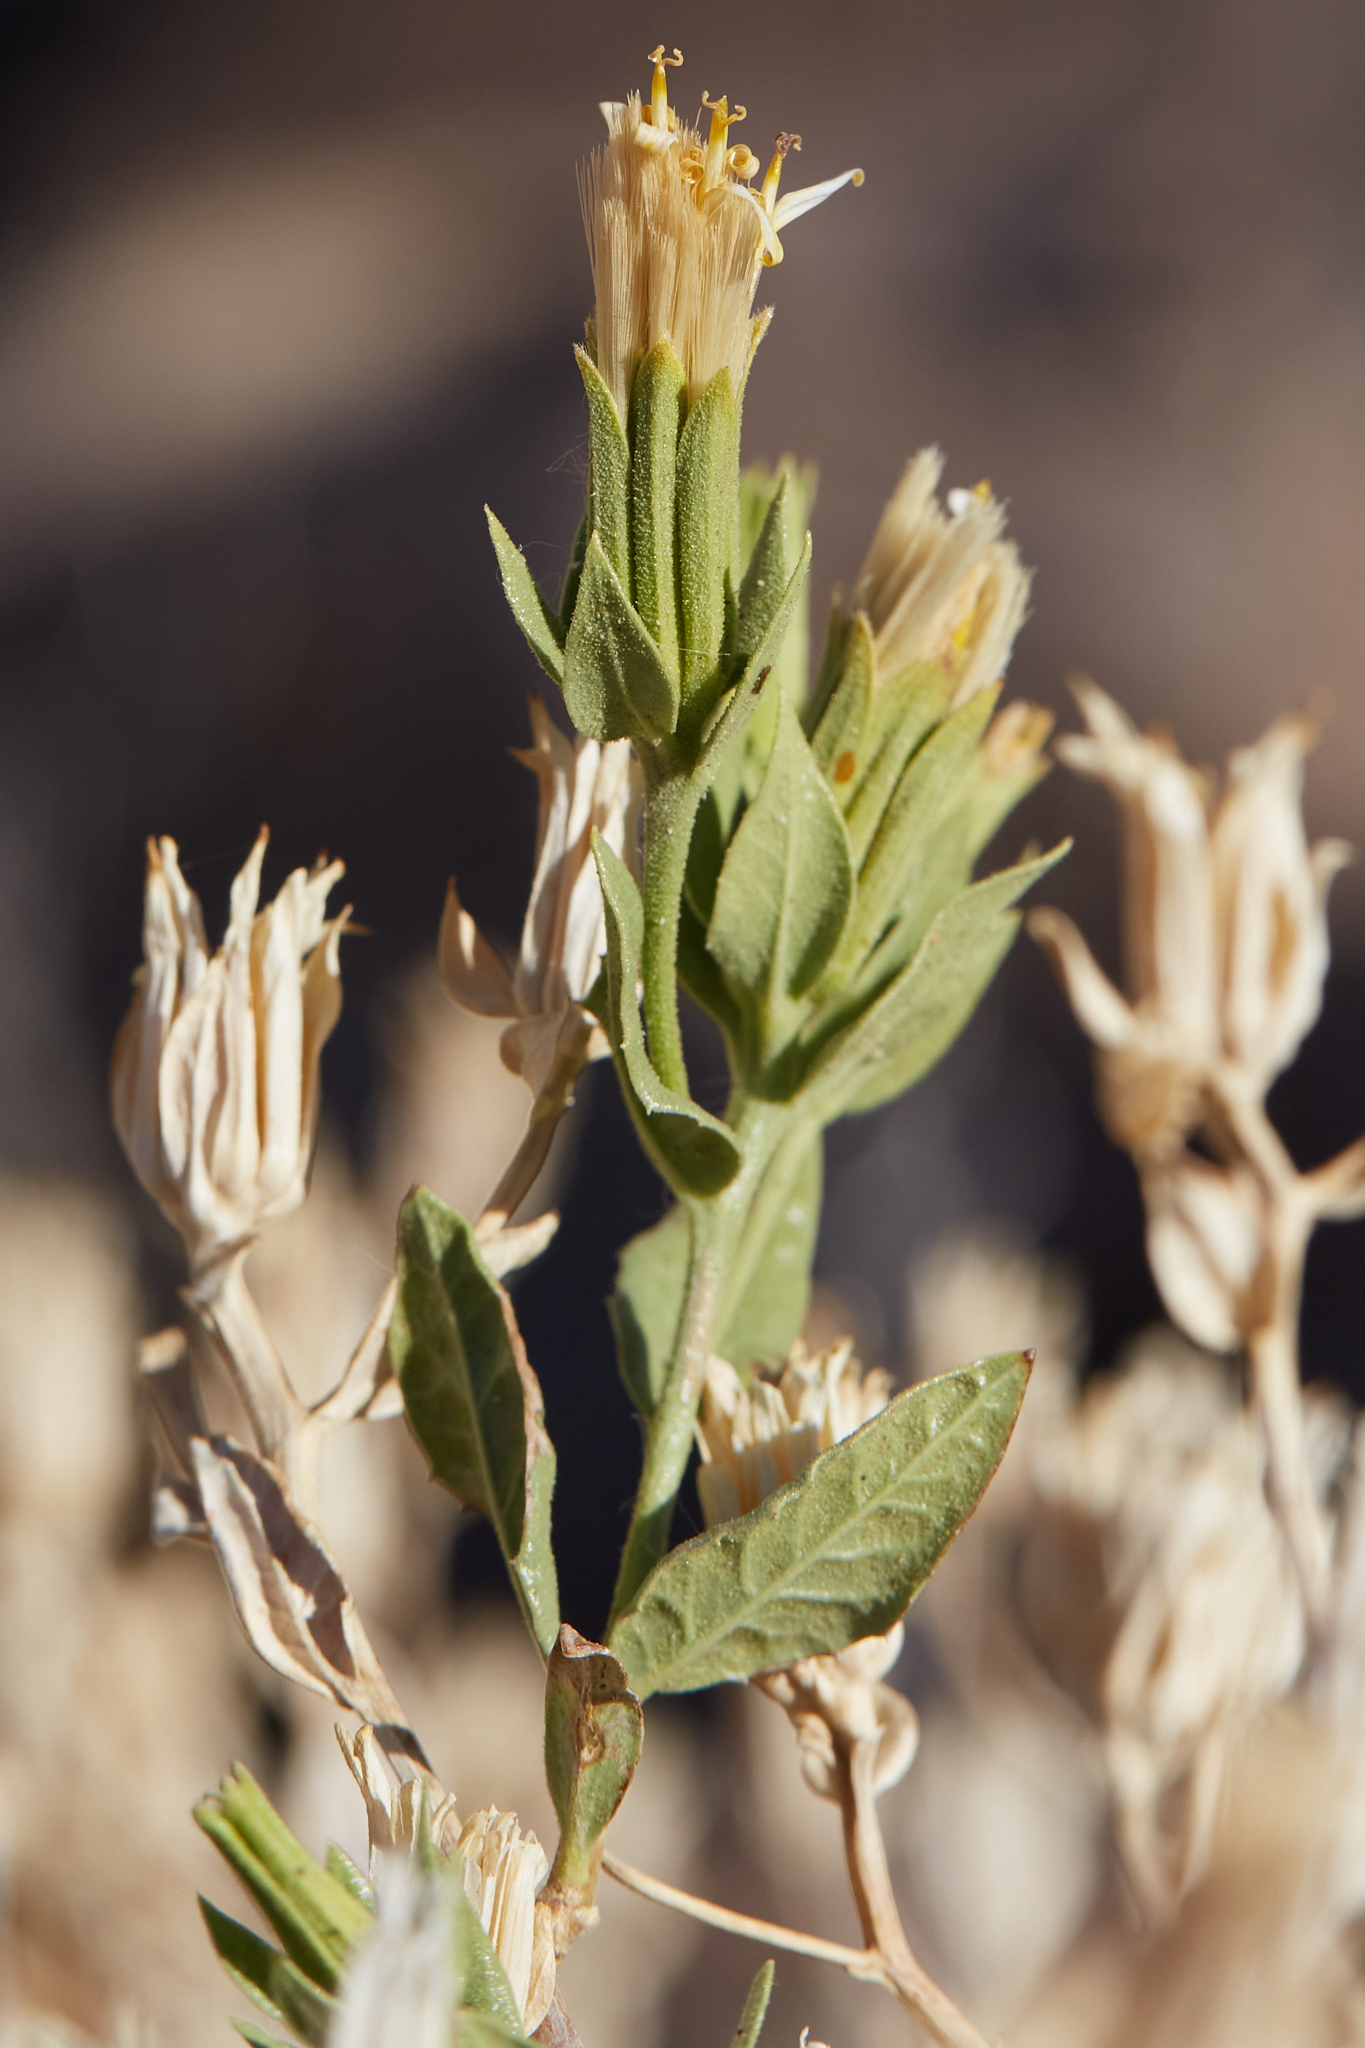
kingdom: Plantae
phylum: Tracheophyta
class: Magnoliopsida
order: Asterales
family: Asteraceae
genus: Trixis
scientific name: Trixis californica
